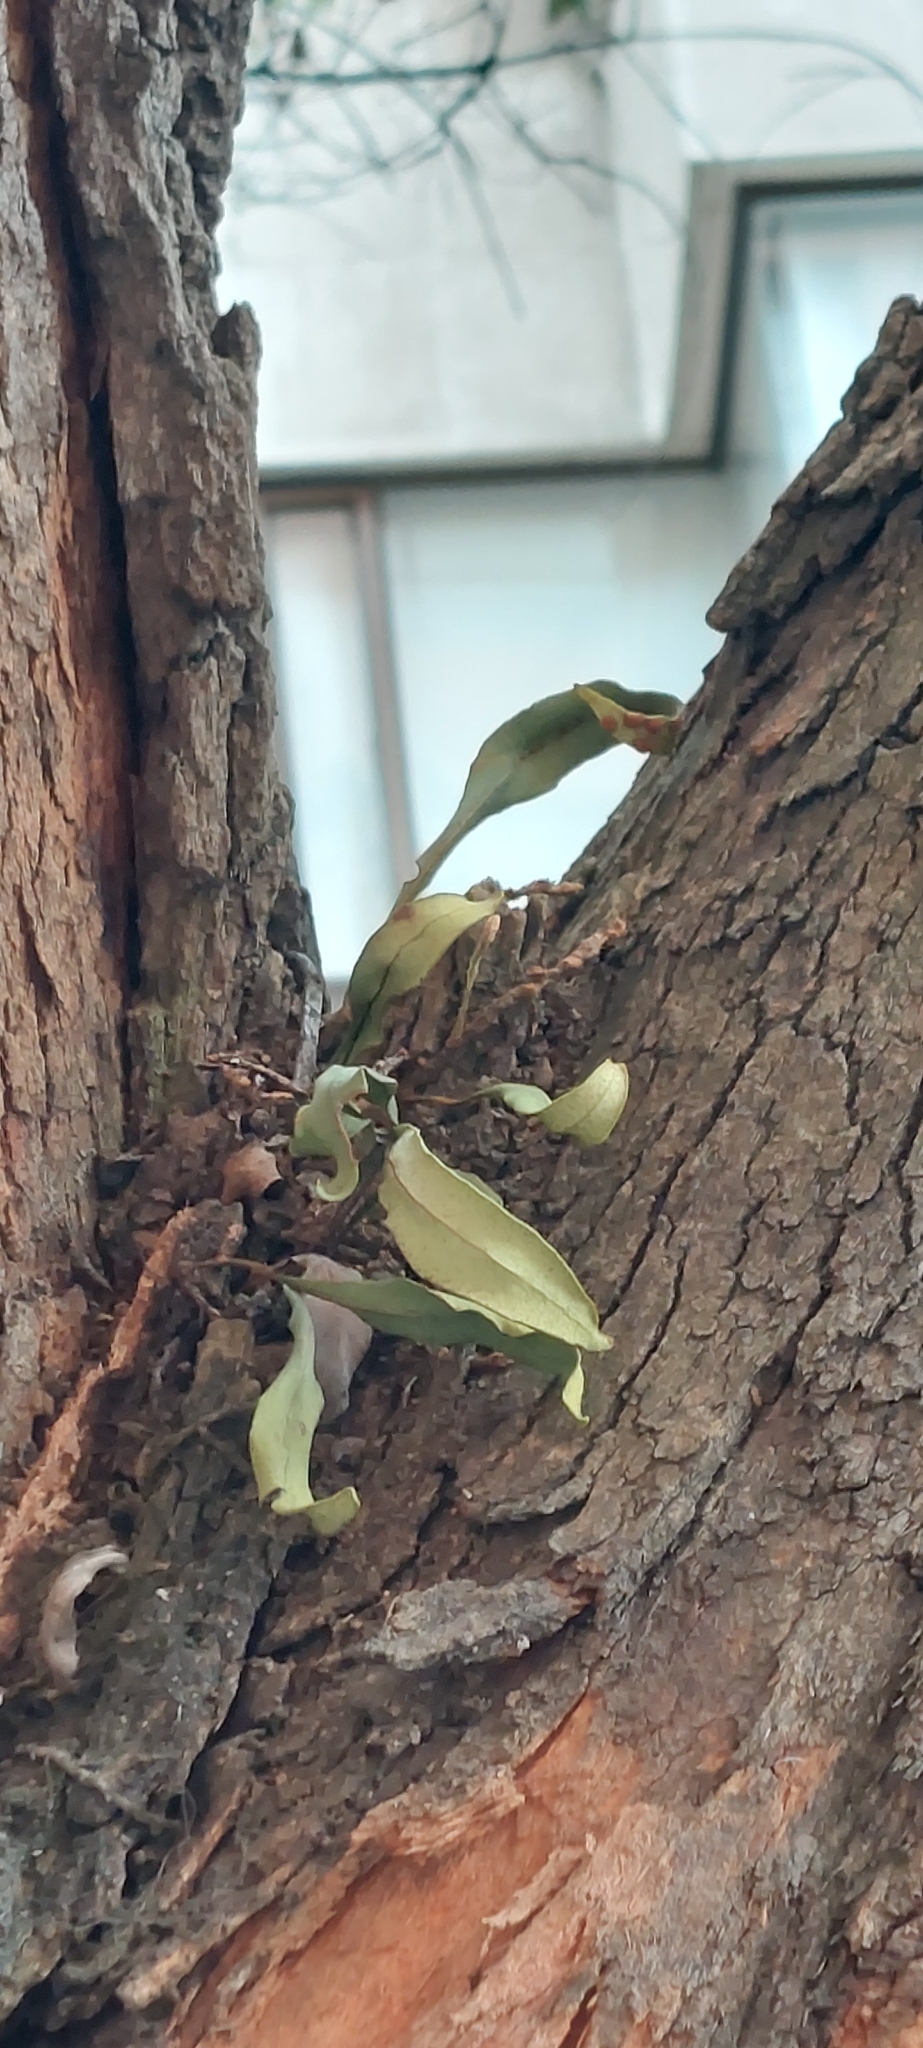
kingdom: Plantae
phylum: Tracheophyta
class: Polypodiopsida
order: Polypodiales
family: Polypodiaceae
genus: Pleopeltis
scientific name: Pleopeltis macrocarpa
